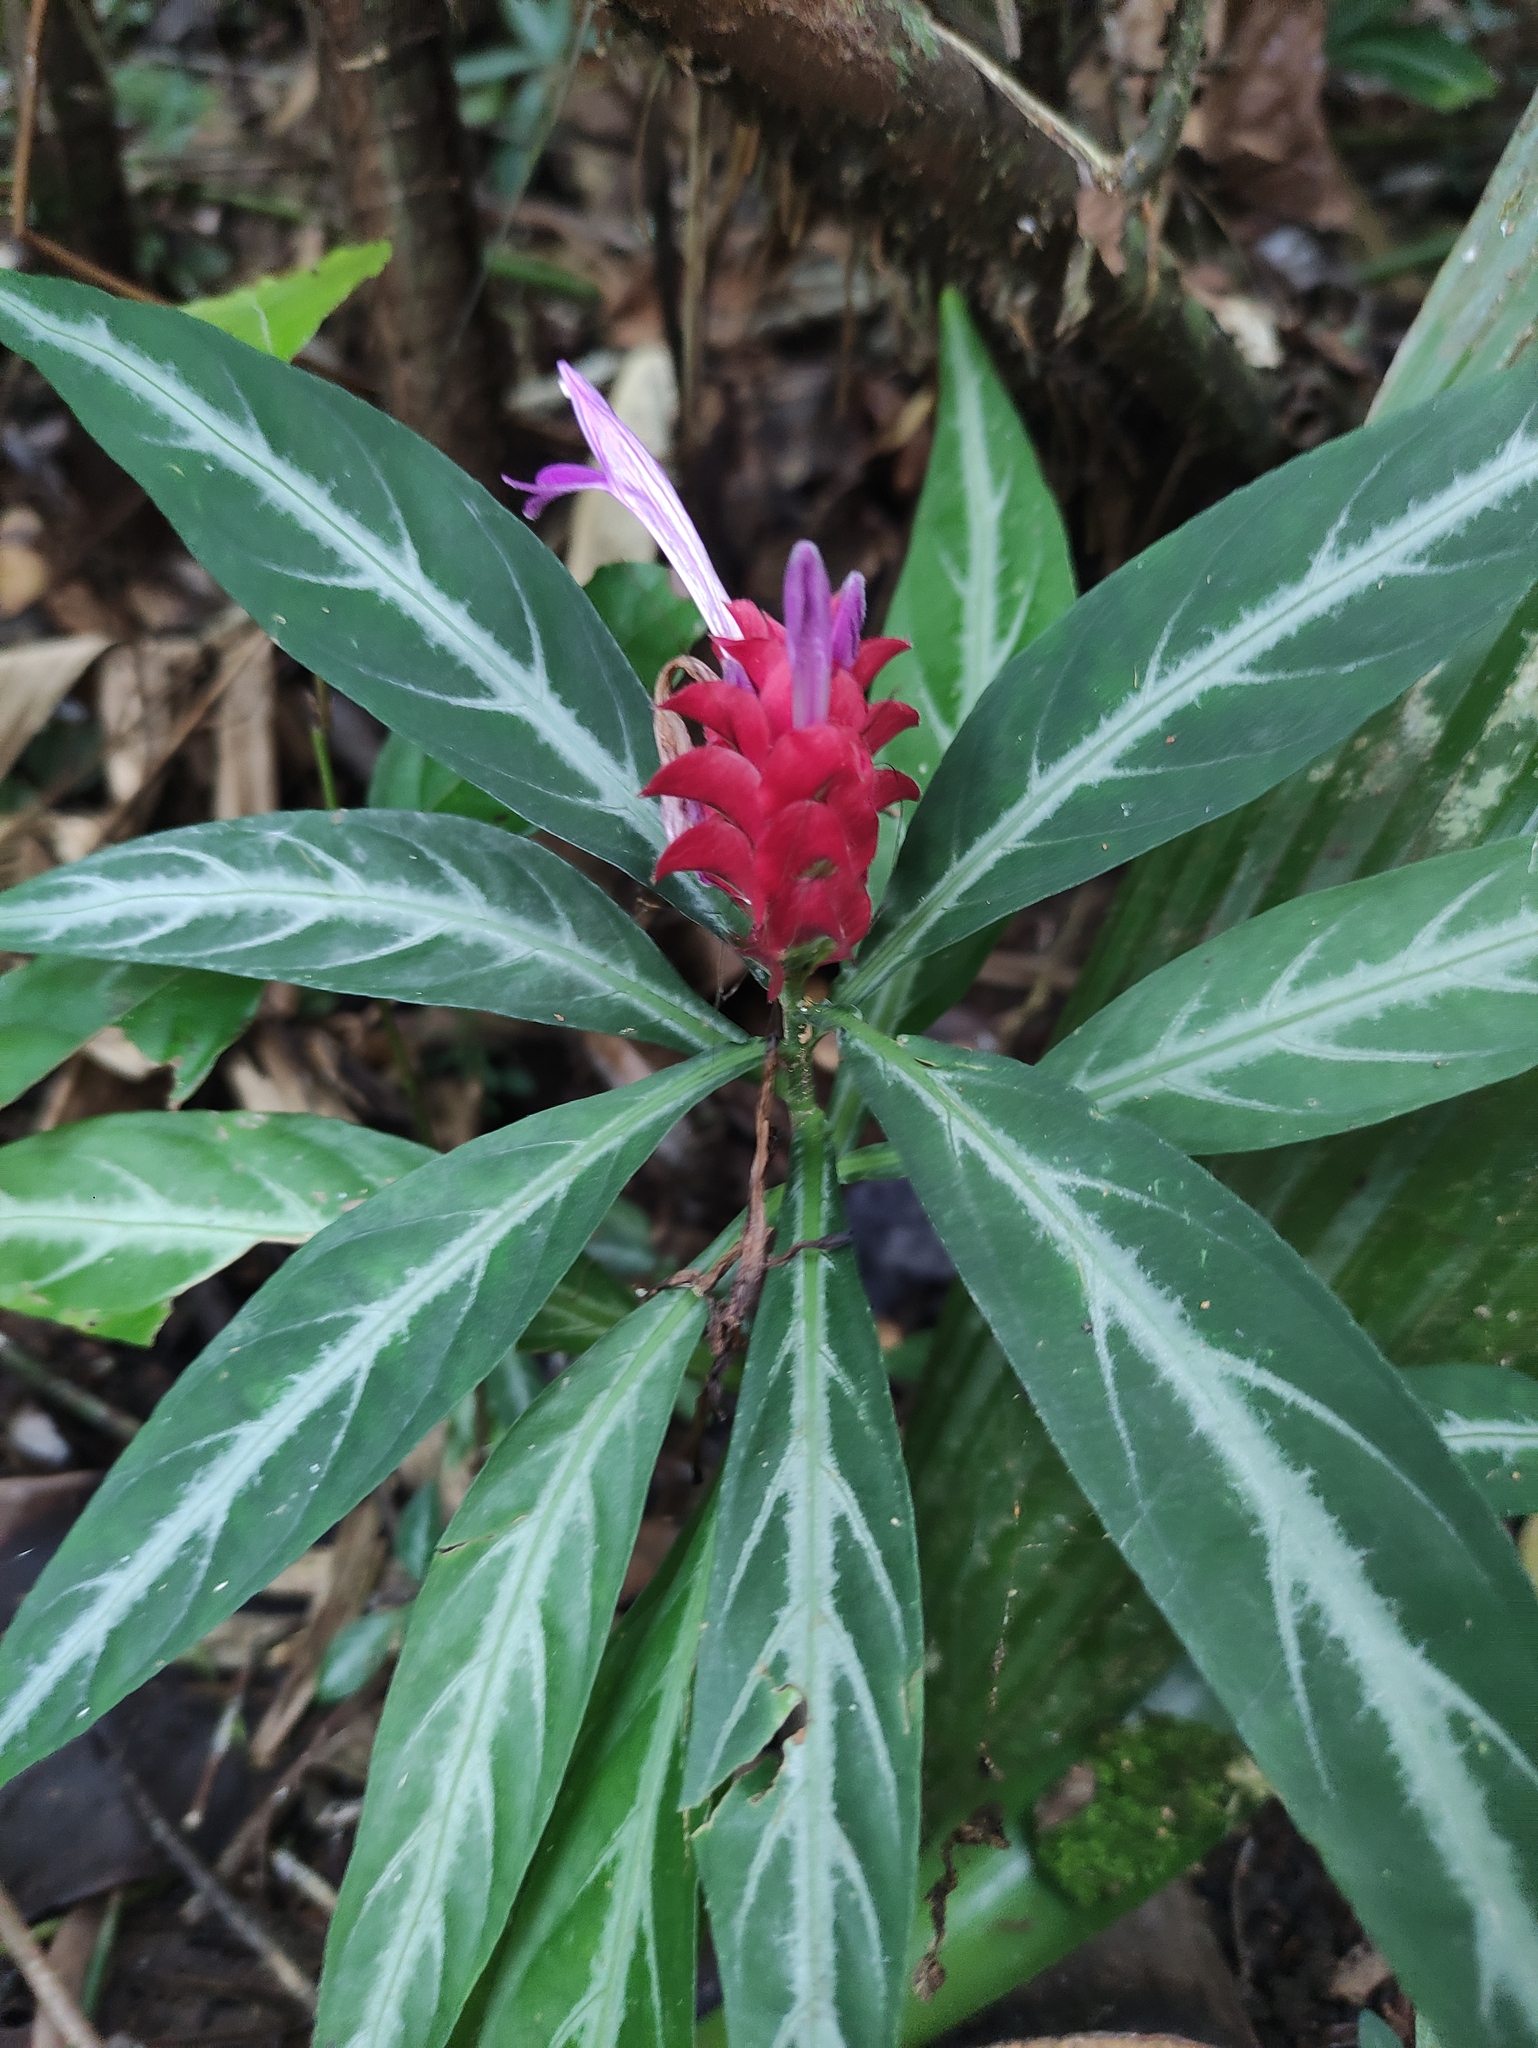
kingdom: Plantae
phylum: Tracheophyta
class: Magnoliopsida
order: Lamiales
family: Acanthaceae
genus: Justicia
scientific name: Justicia scheidweileri
